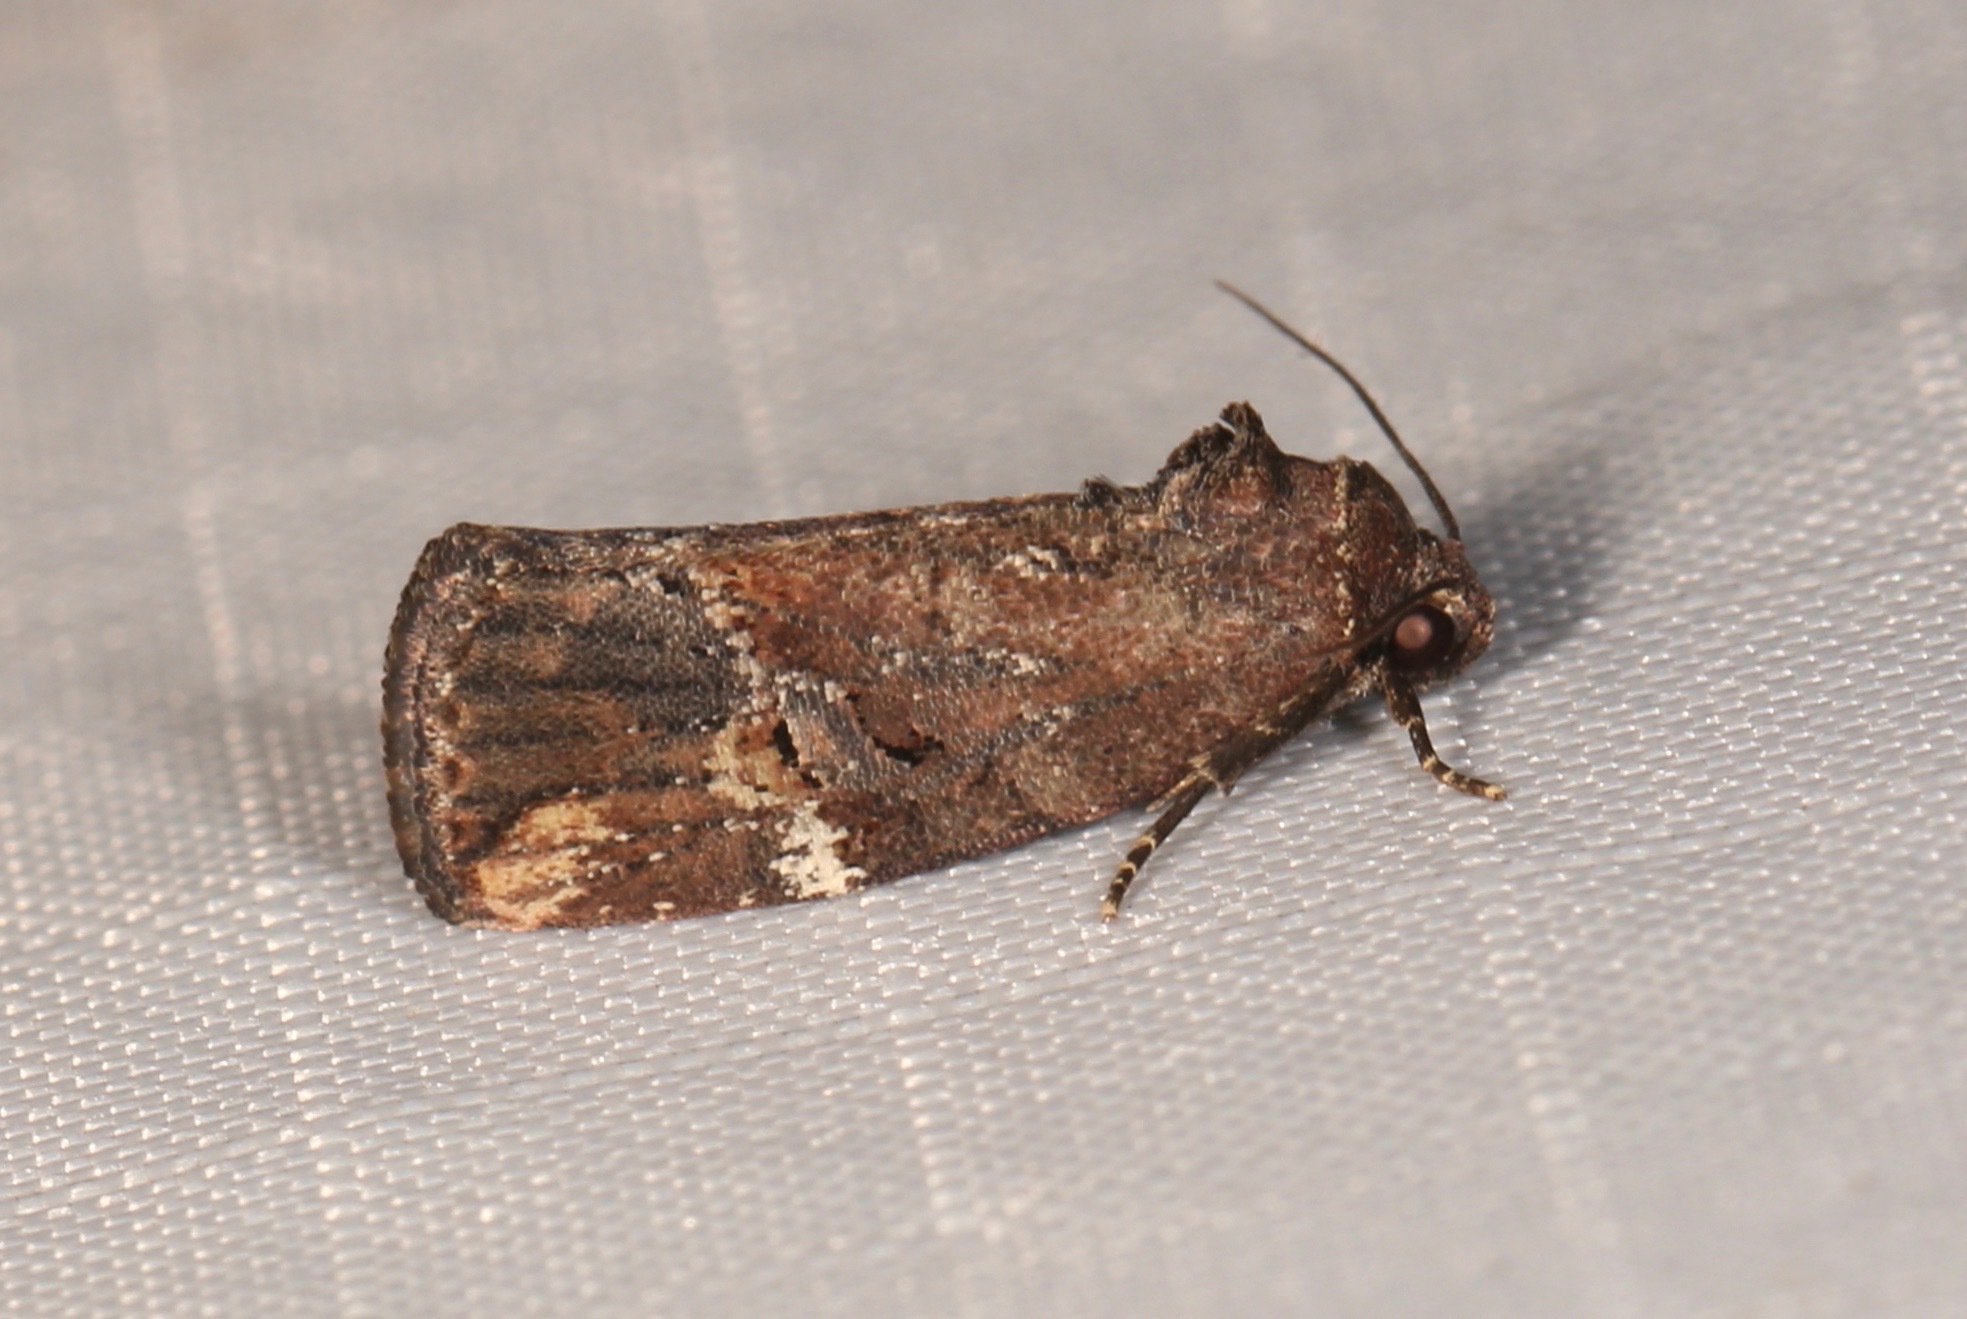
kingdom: Animalia
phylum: Arthropoda
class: Insecta
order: Lepidoptera
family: Noctuidae
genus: Elaphria
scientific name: Elaphria versicolor
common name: Fir harlequin
